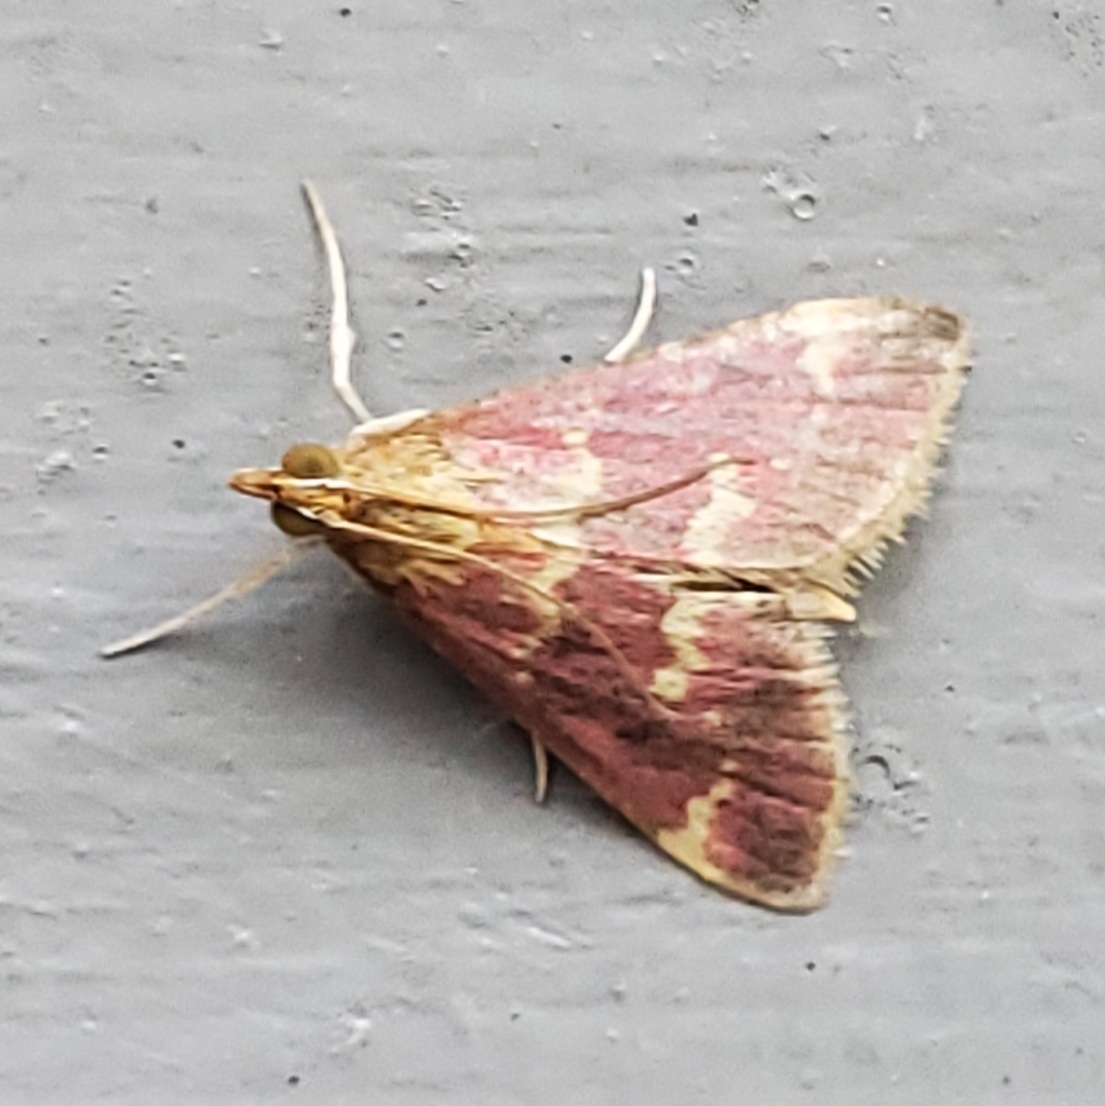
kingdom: Animalia
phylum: Arthropoda
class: Insecta
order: Lepidoptera
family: Crambidae
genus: Pyrausta
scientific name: Pyrausta signatalis
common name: Raspberry pyrausta moth
